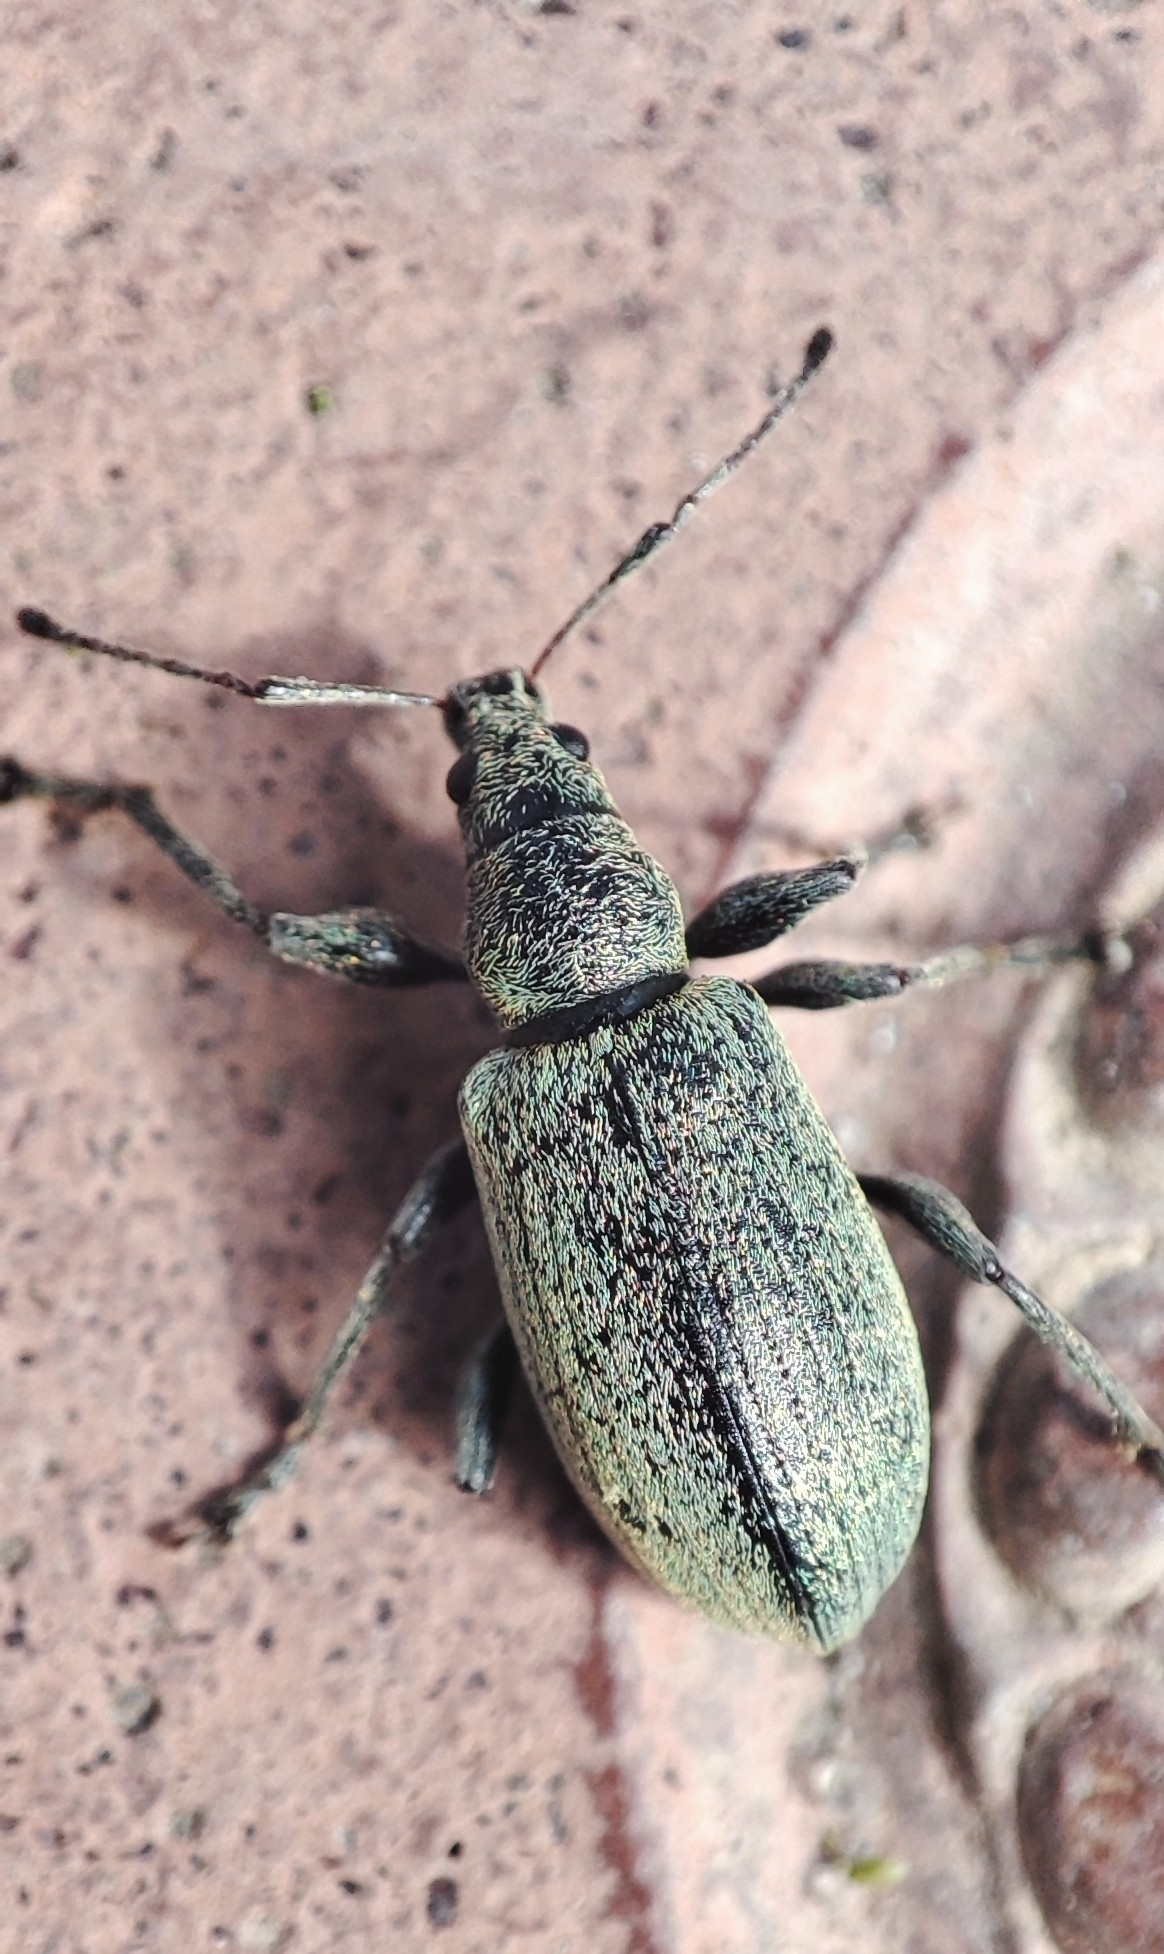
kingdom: Animalia
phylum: Arthropoda
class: Insecta
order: Coleoptera
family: Curculionidae
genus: Phyllobius
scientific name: Phyllobius pomaceus
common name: Green nettle weevil
